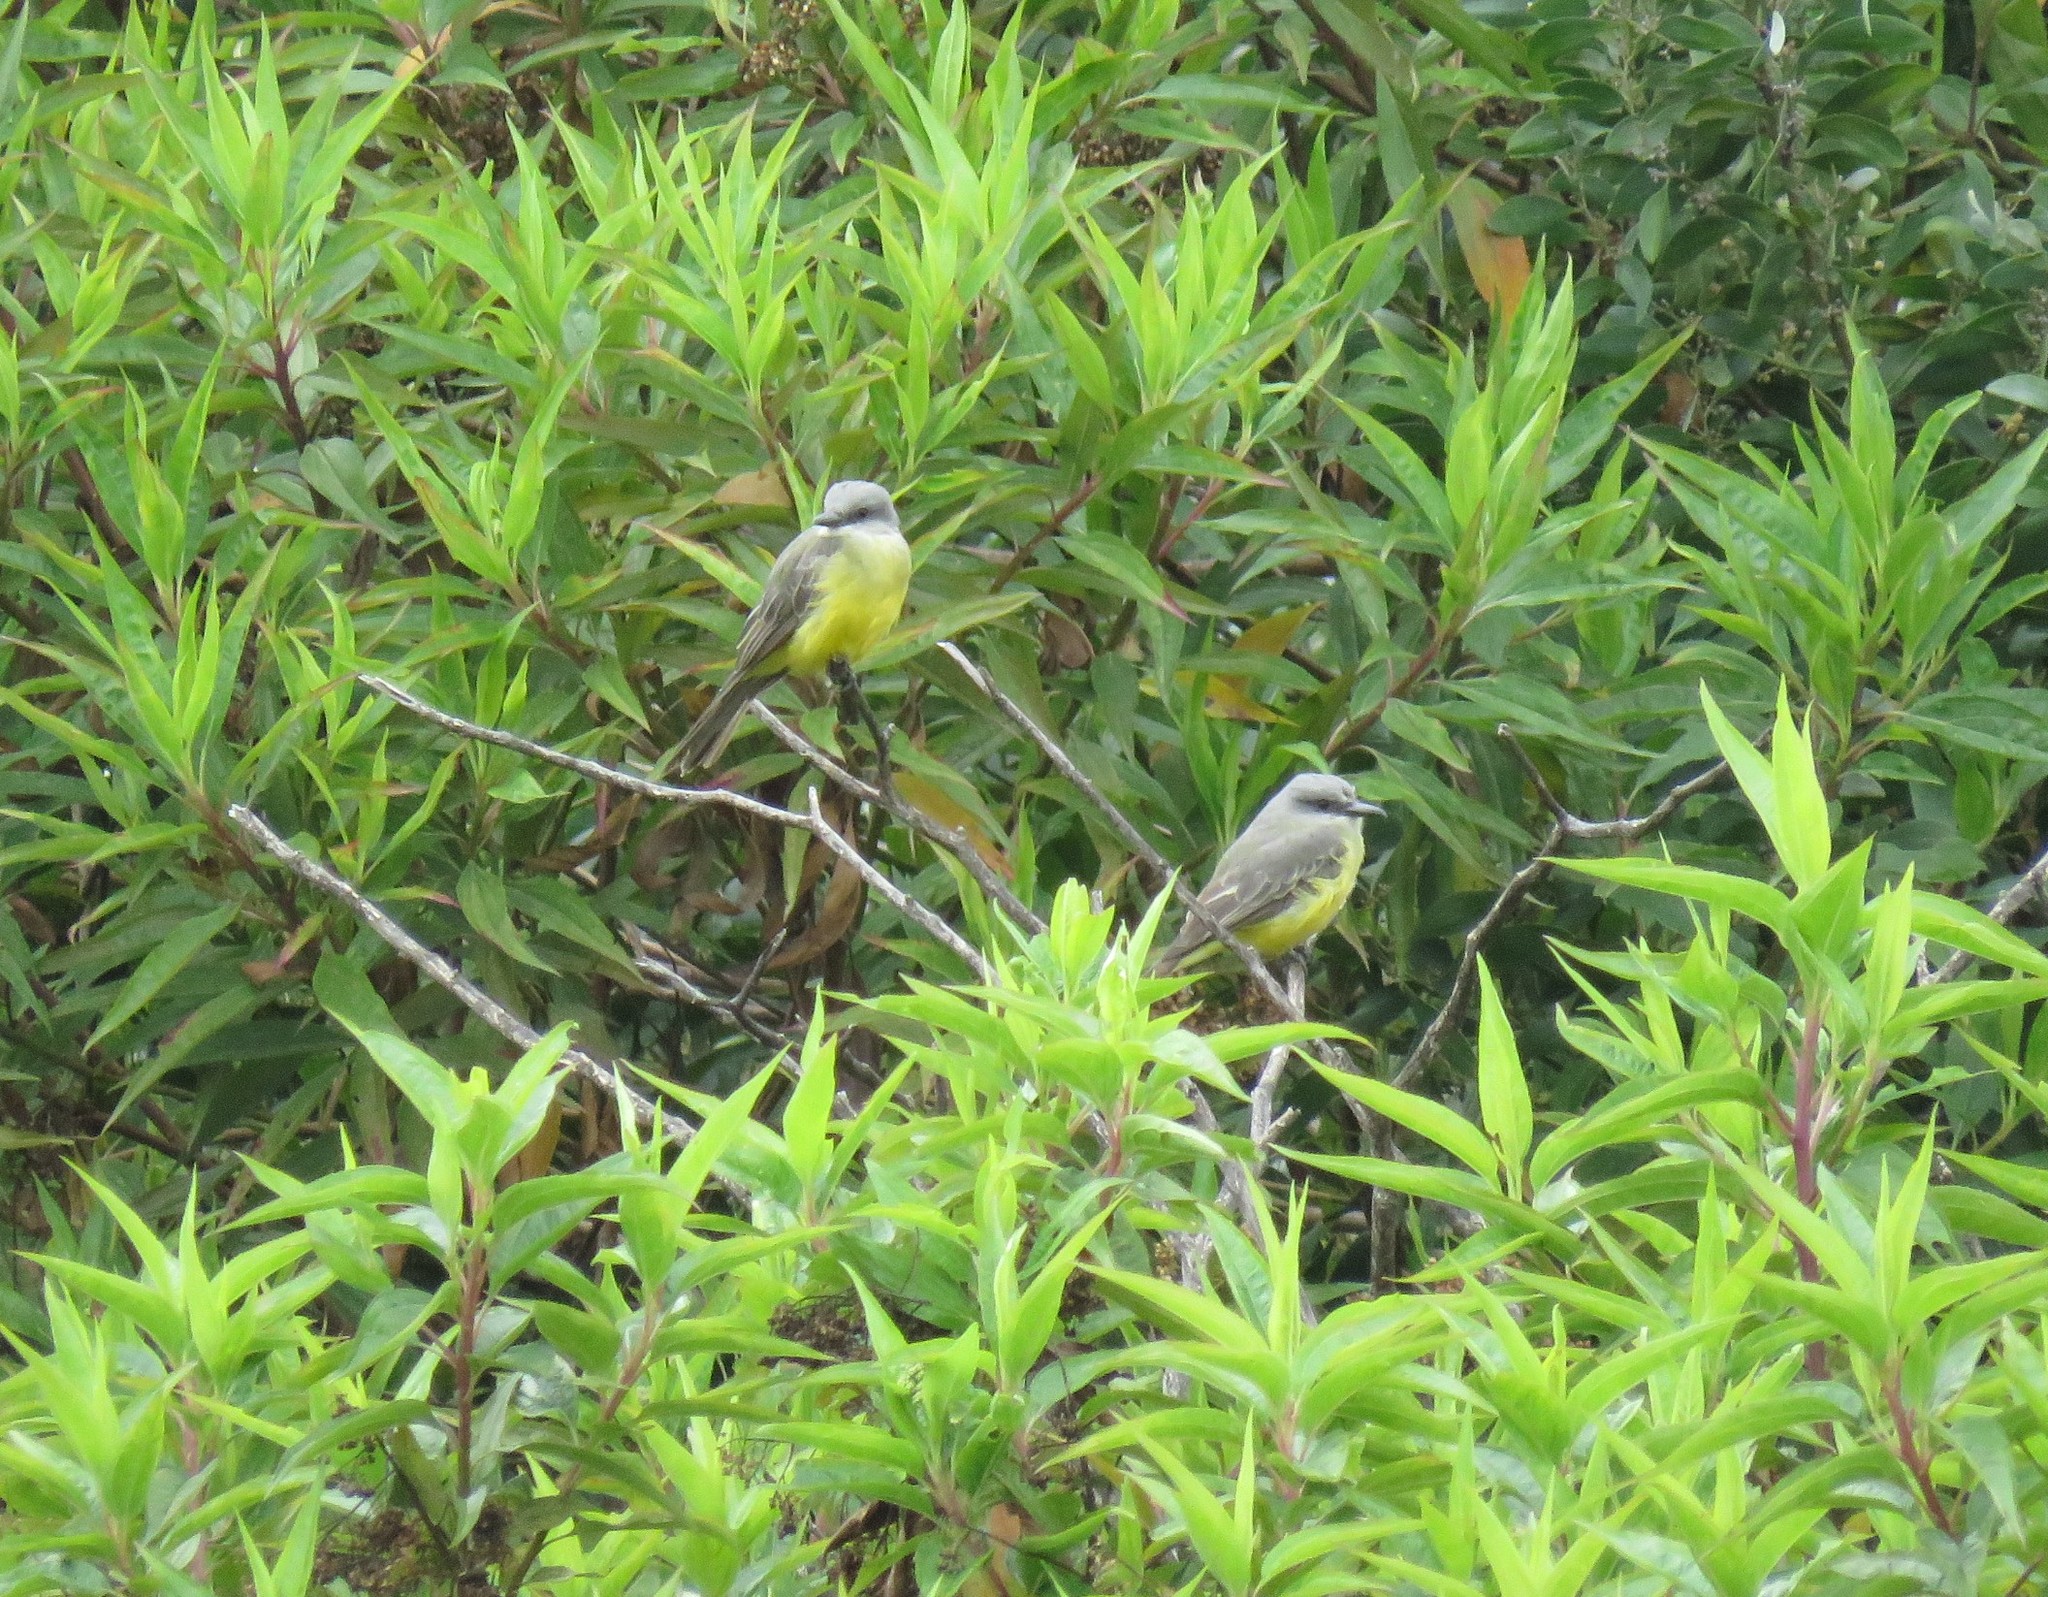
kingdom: Animalia
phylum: Chordata
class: Aves
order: Passeriformes
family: Tyrannidae
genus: Tyrannus
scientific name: Tyrannus melancholicus
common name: Tropical kingbird
